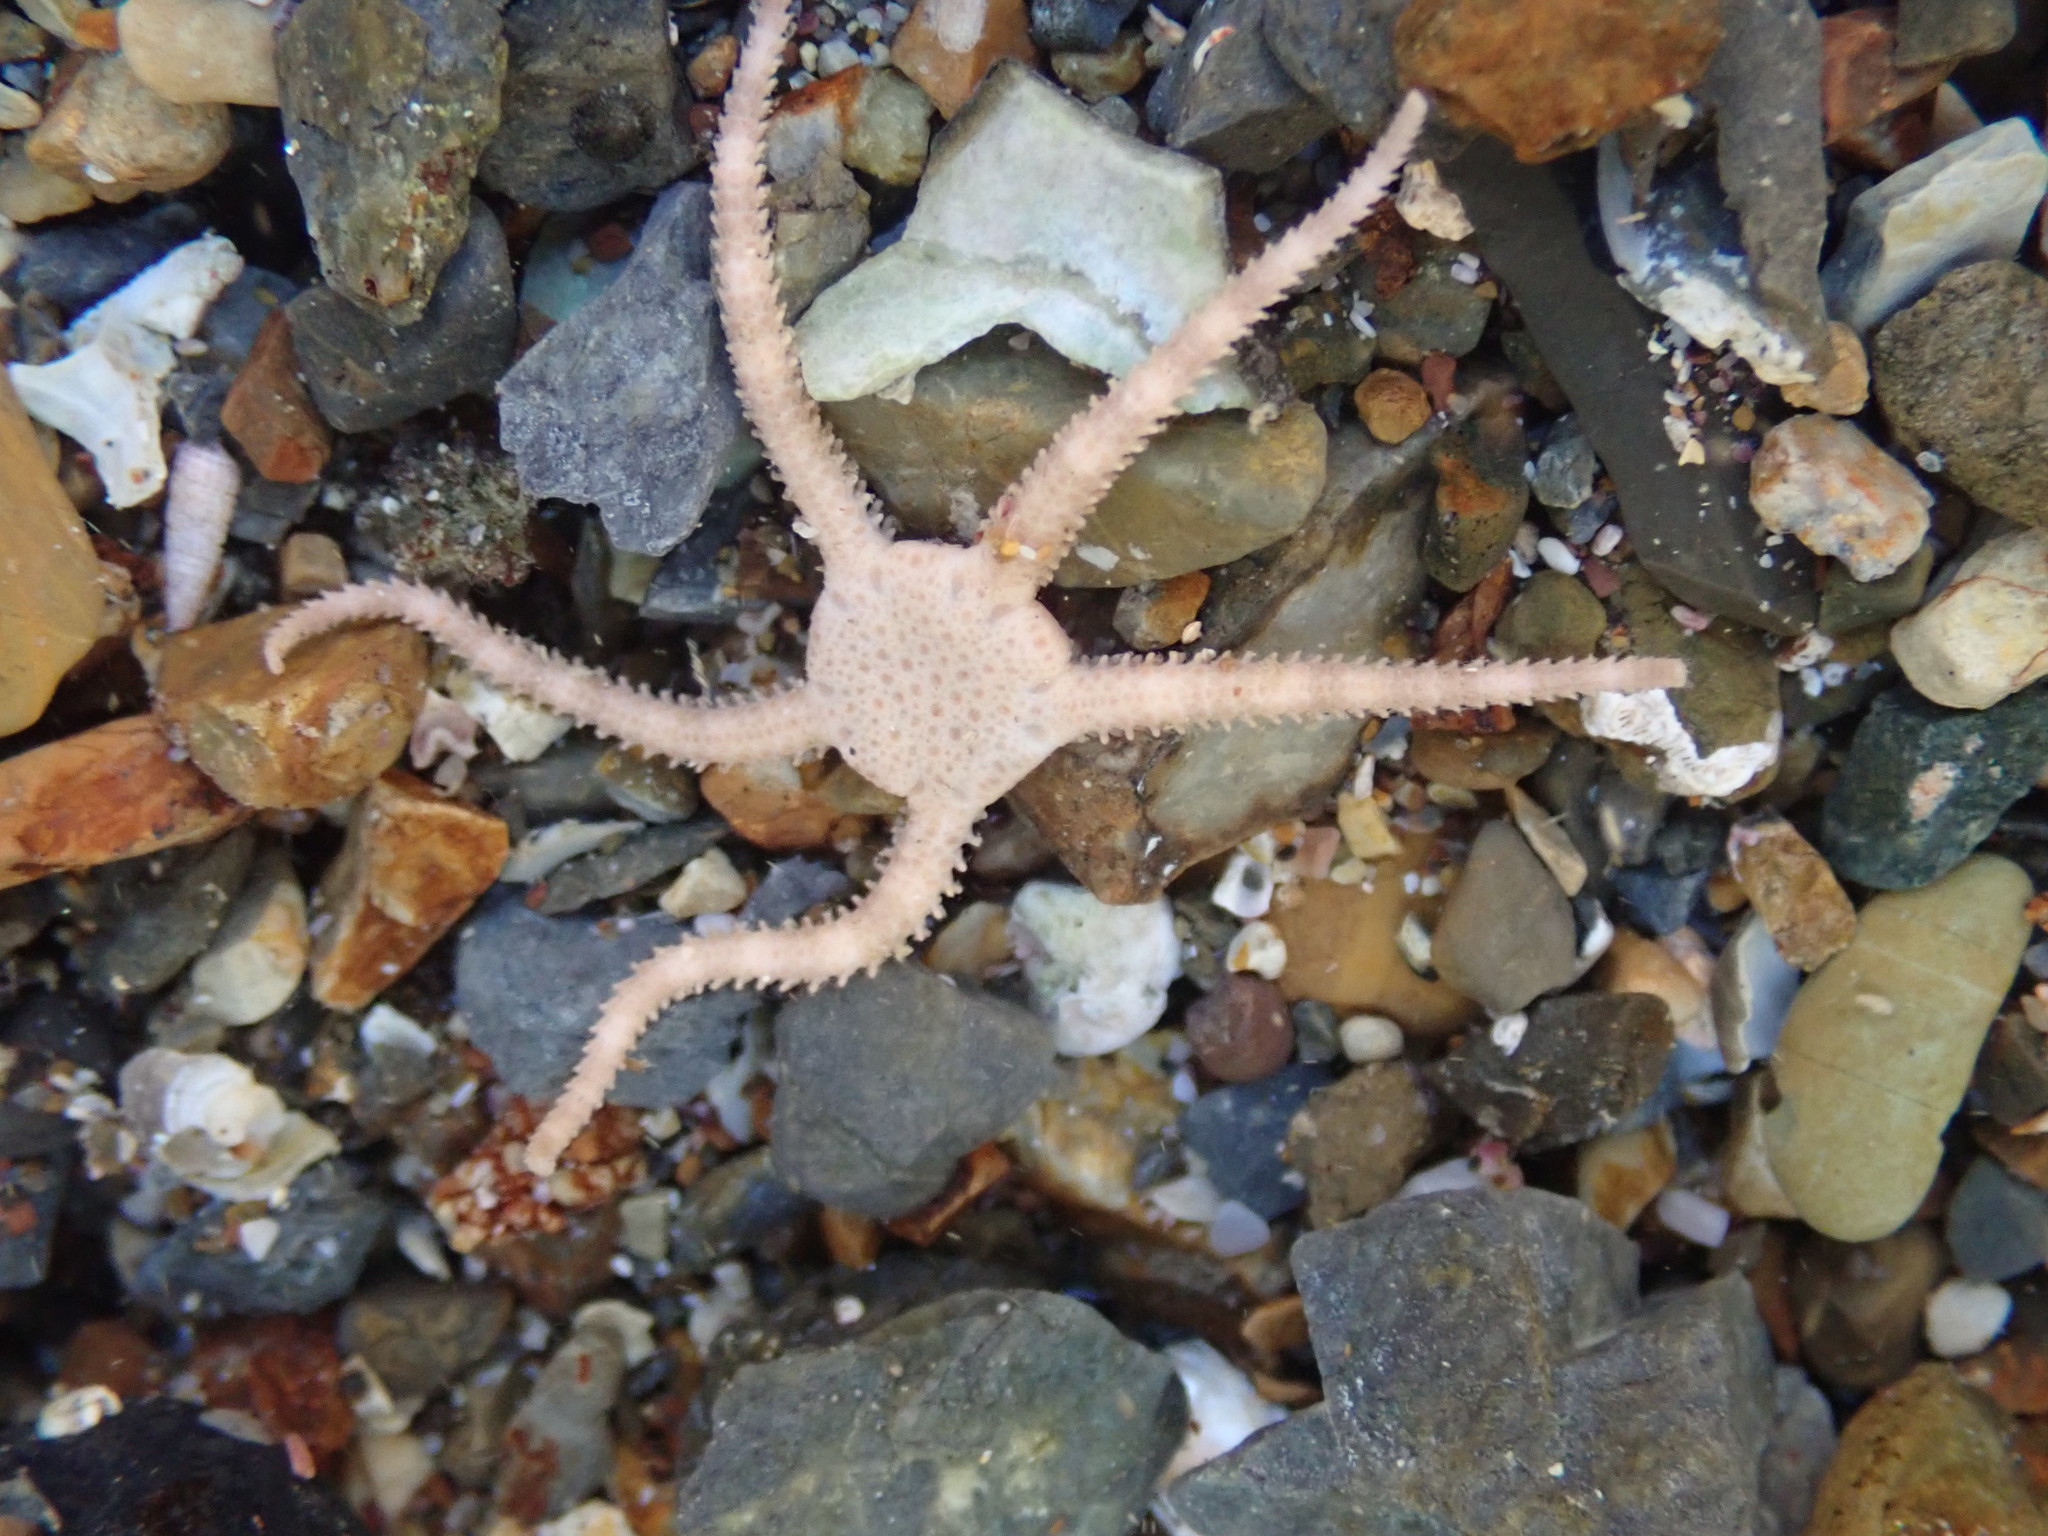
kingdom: Animalia
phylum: Echinodermata
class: Ophiuroidea
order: Amphilepidida
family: Hemieuryalidae
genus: Ophioplocus
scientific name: Ophioplocus huttoni
